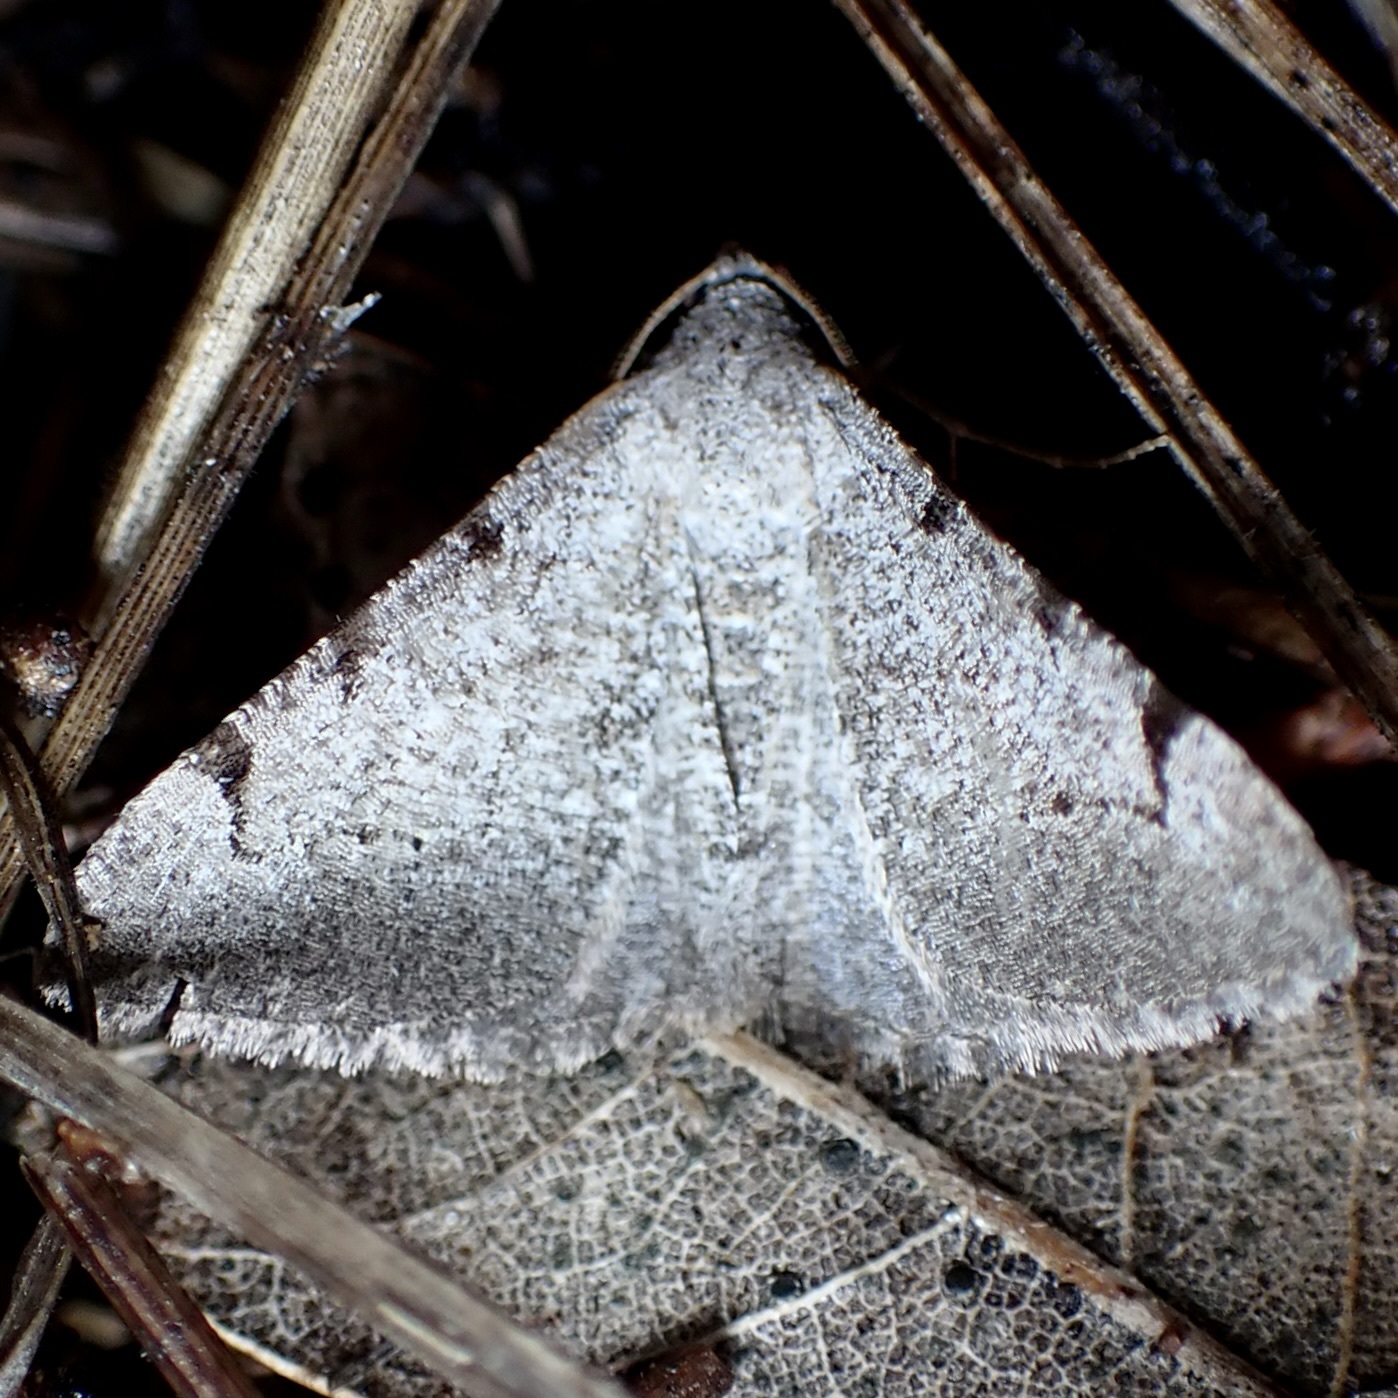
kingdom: Animalia
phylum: Arthropoda
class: Insecta
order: Lepidoptera
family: Geometridae
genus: Digrammia
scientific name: Digrammia triviata
